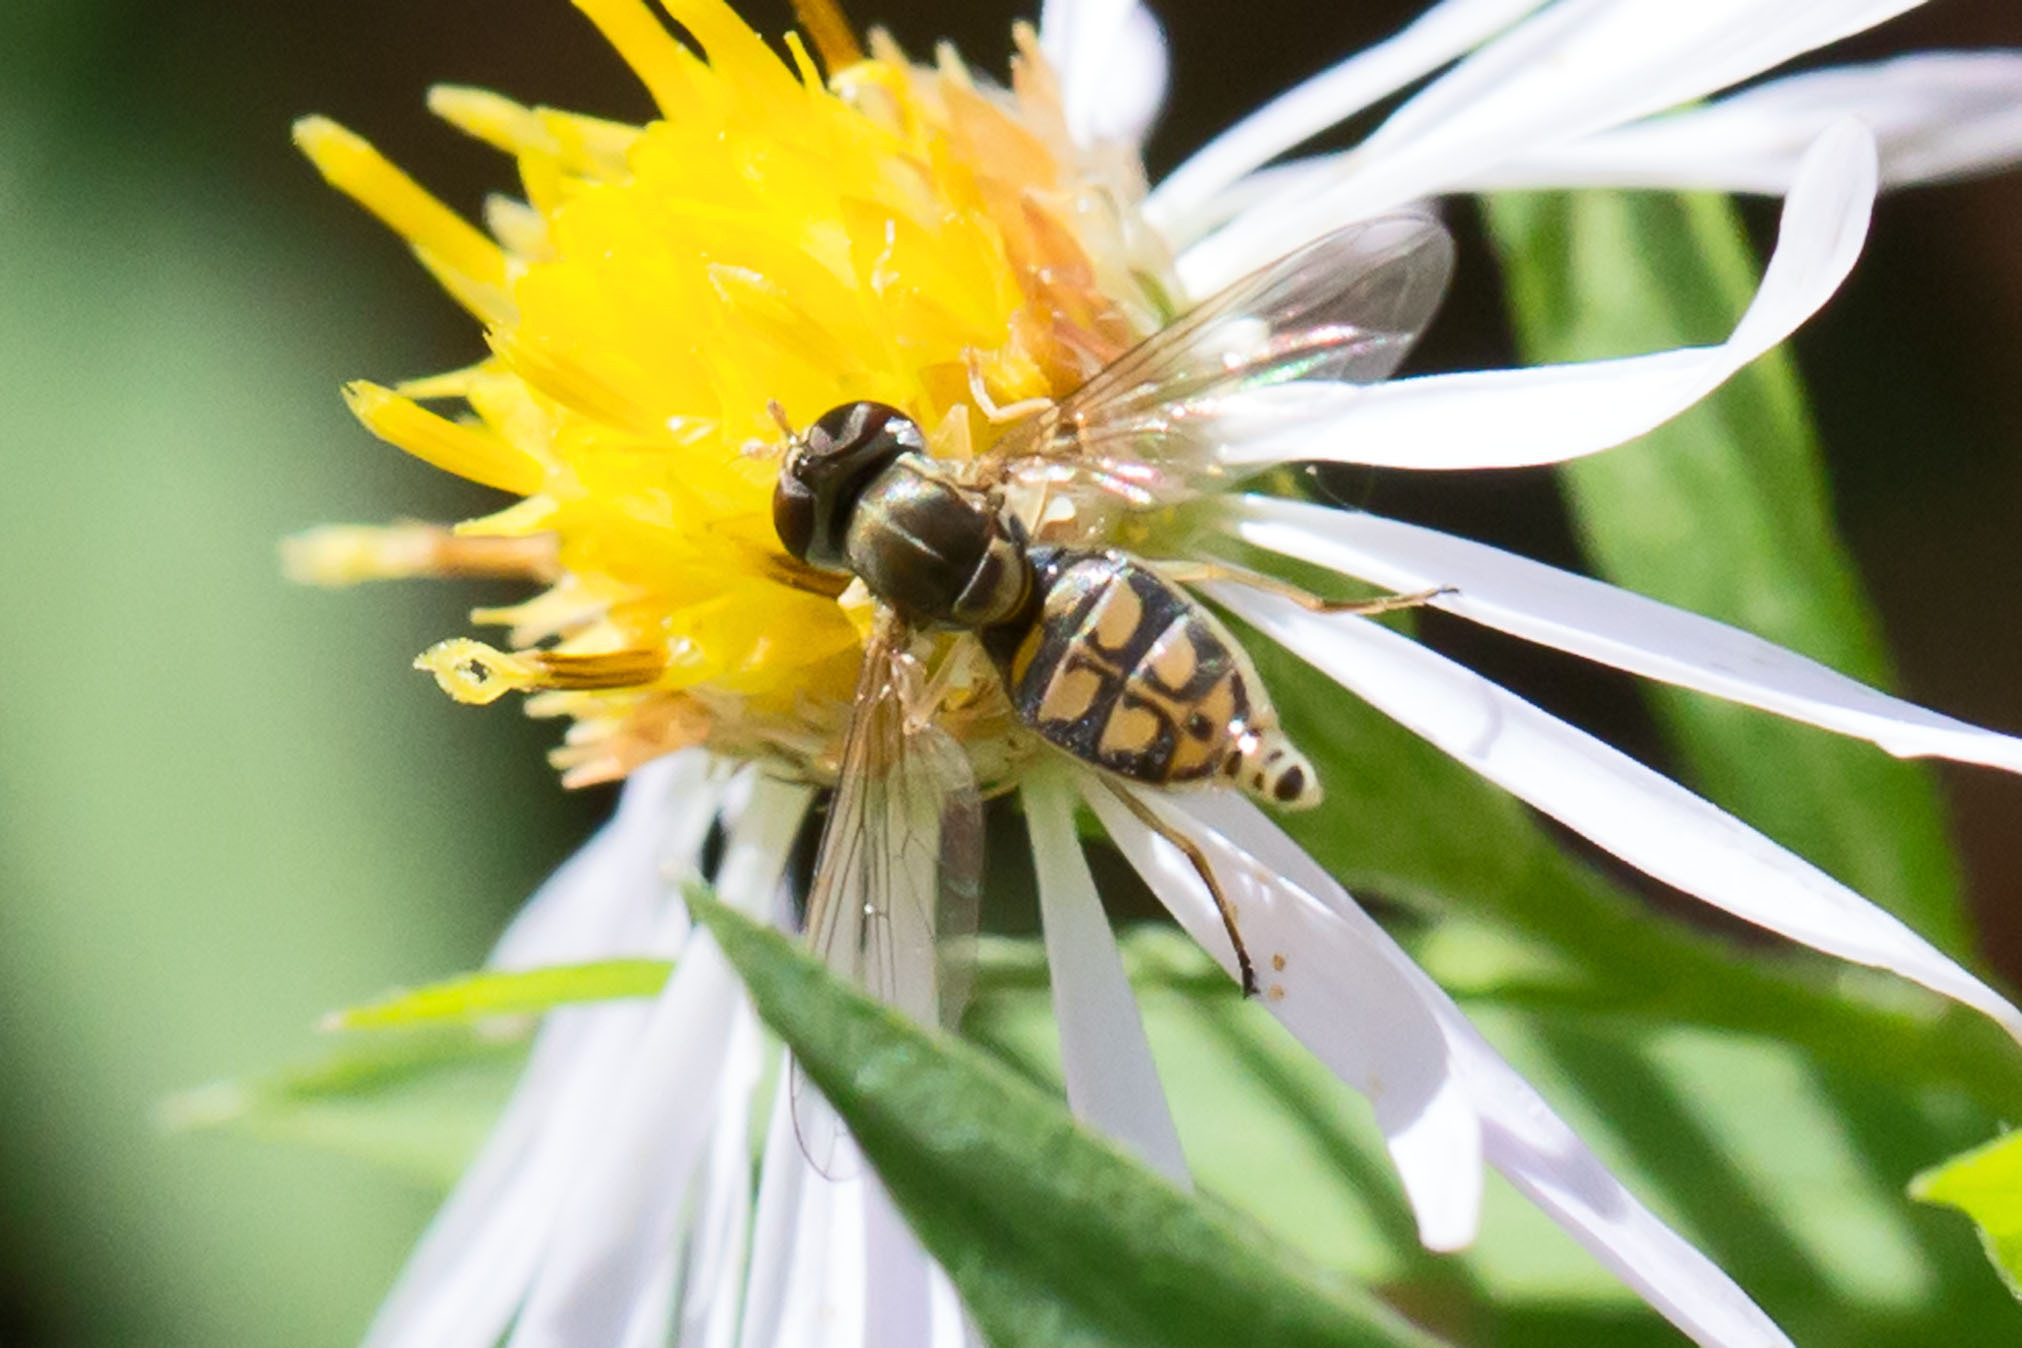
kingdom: Animalia
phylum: Arthropoda
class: Insecta
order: Diptera
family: Syrphidae
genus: Toxomerus
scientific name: Toxomerus marginatus
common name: Syrphid fly
